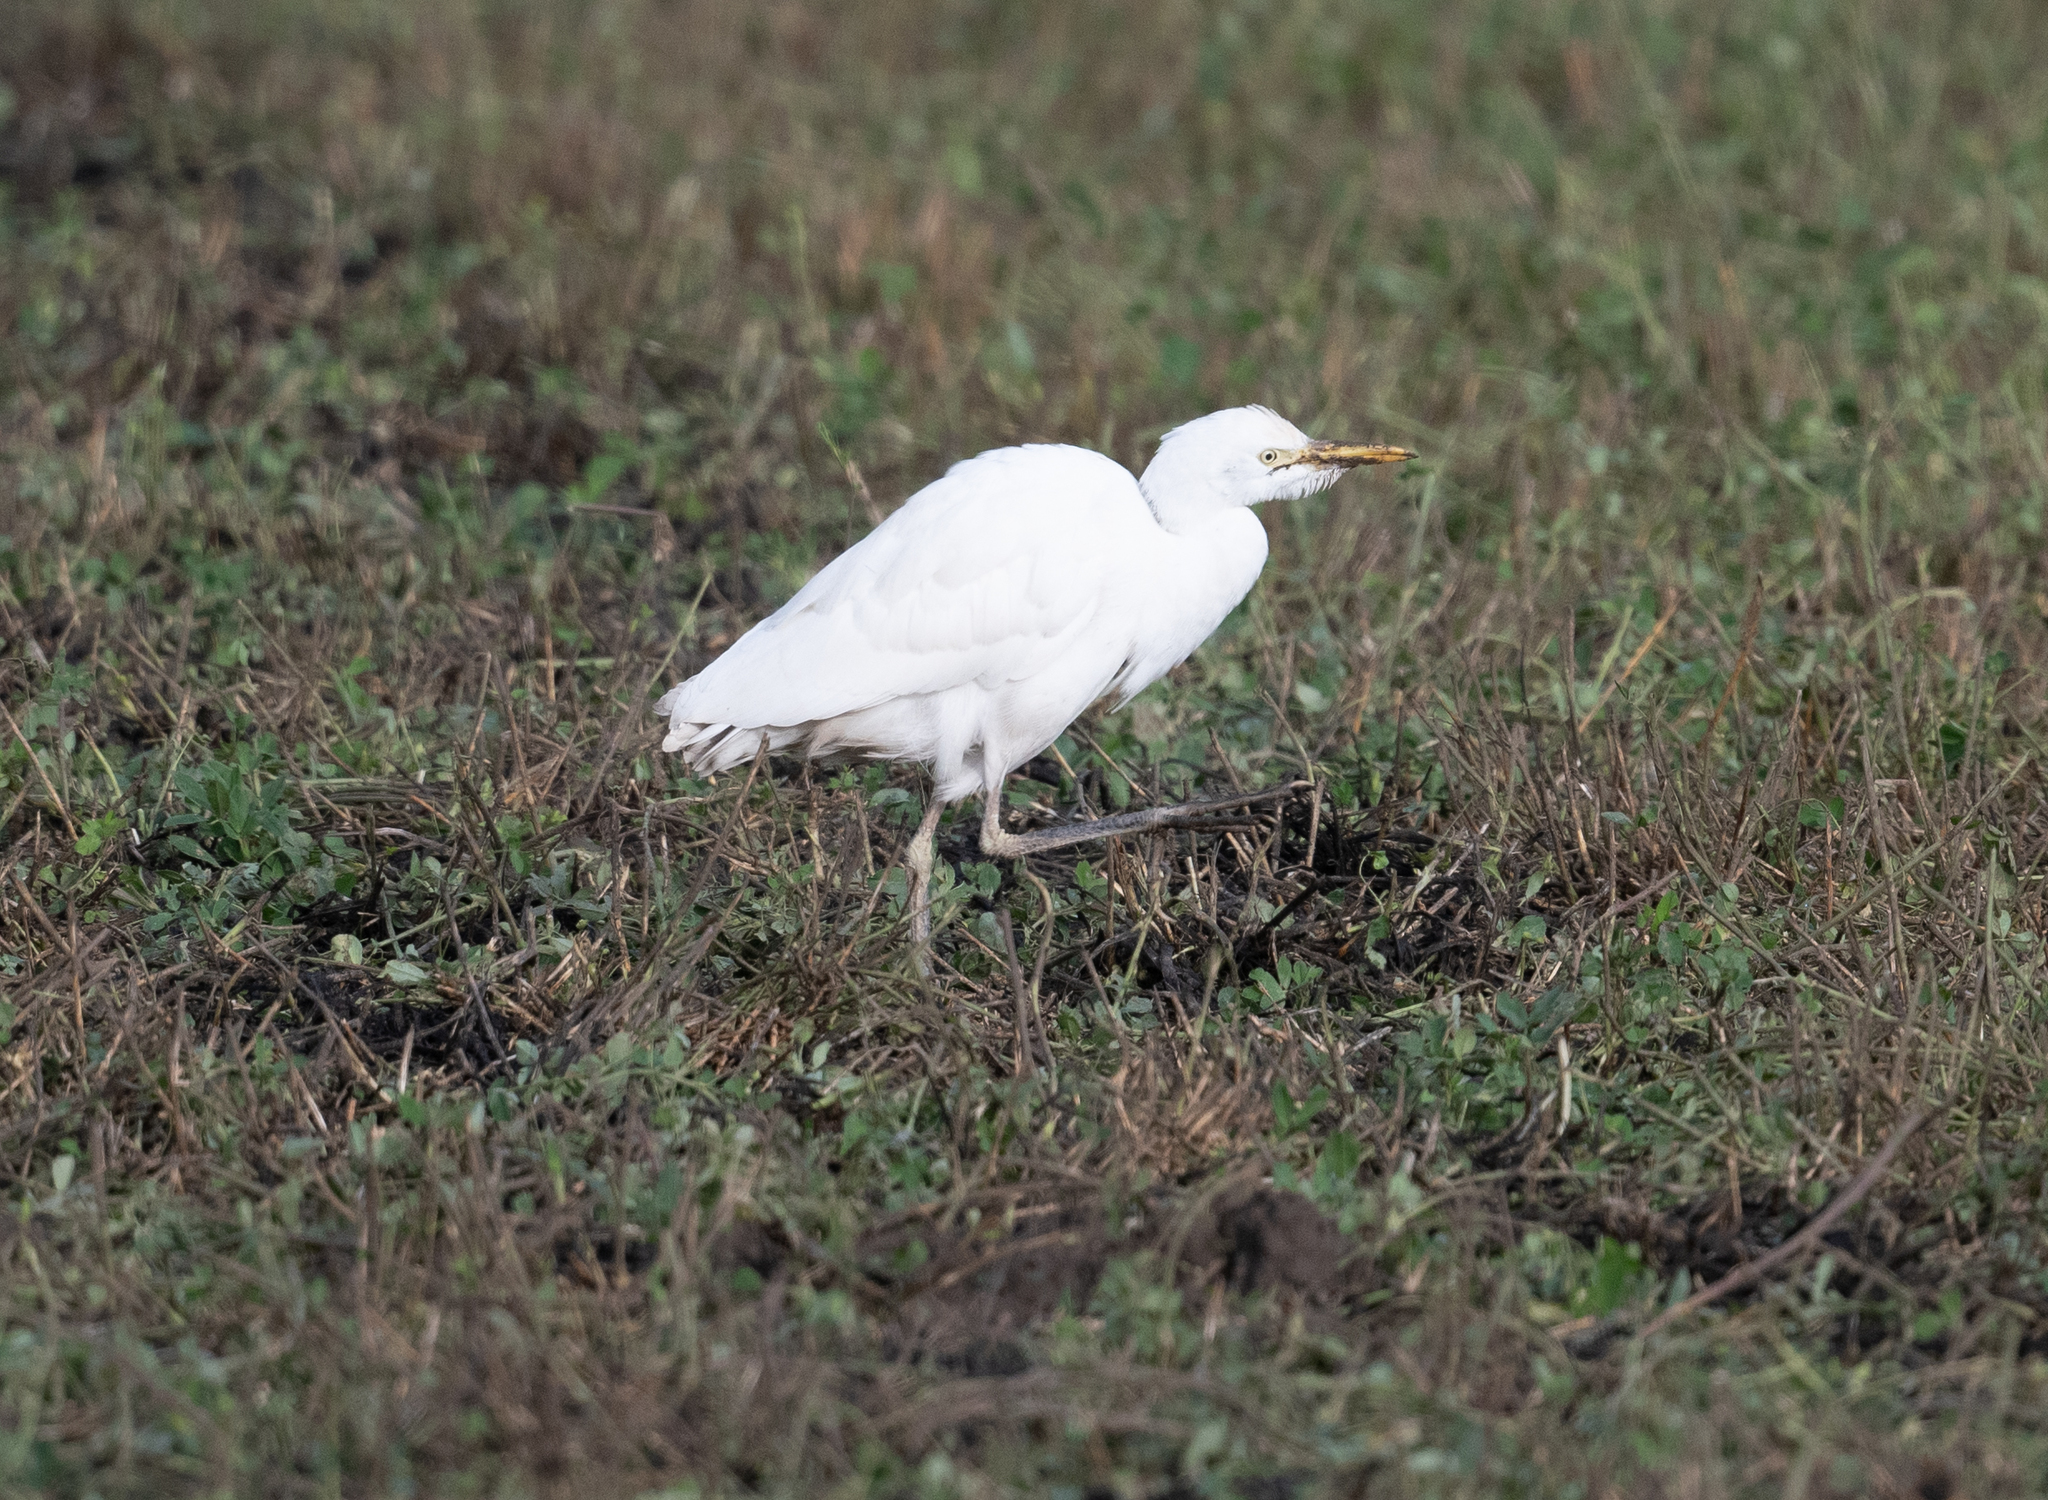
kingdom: Animalia
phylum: Chordata
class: Aves
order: Pelecaniformes
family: Ardeidae
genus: Bubulcus
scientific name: Bubulcus ibis
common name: Cattle egret
